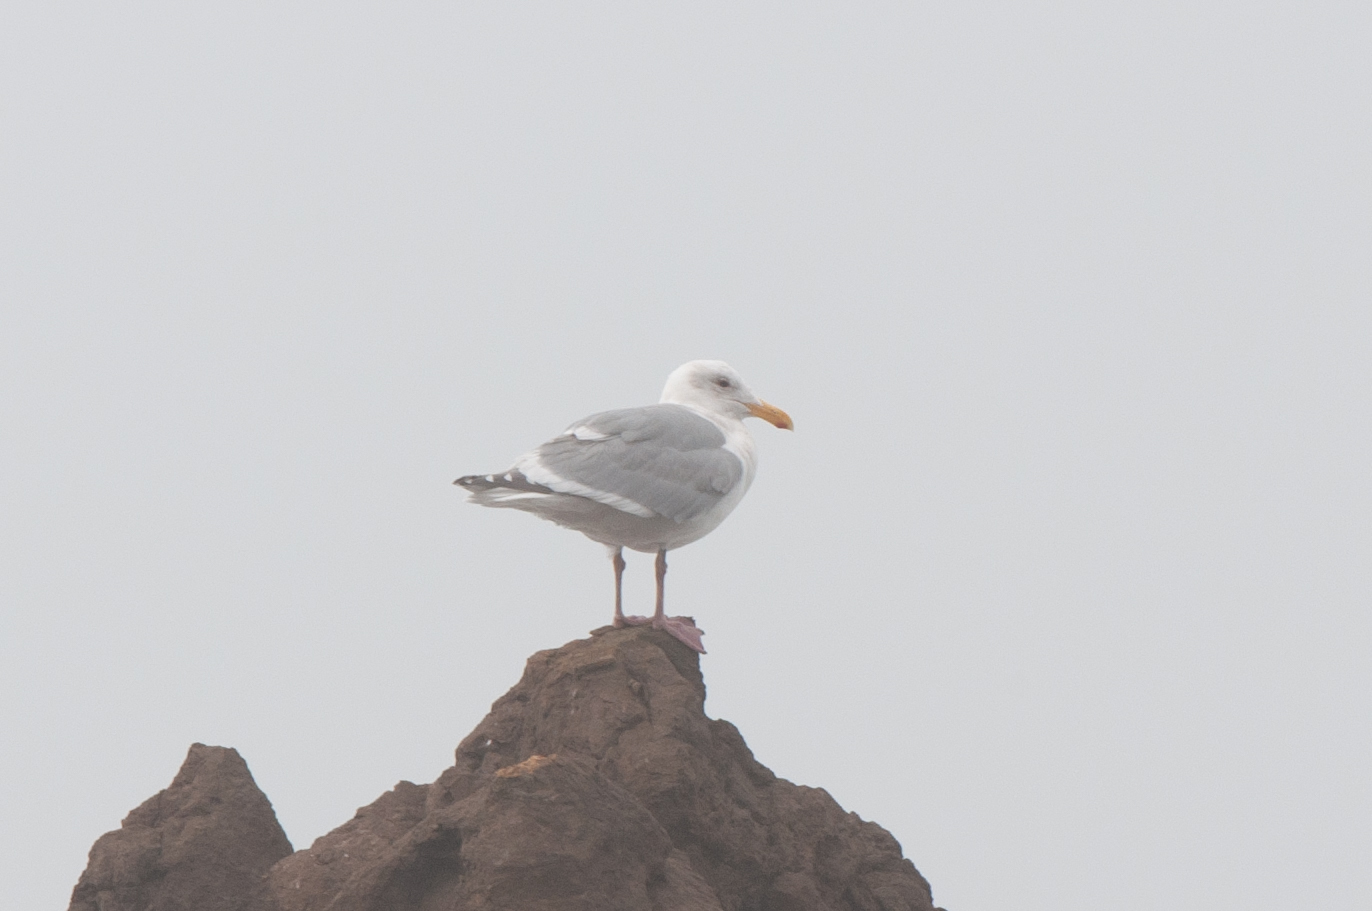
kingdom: Animalia
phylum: Chordata
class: Aves
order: Charadriiformes
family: Laridae
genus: Larus
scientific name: Larus
